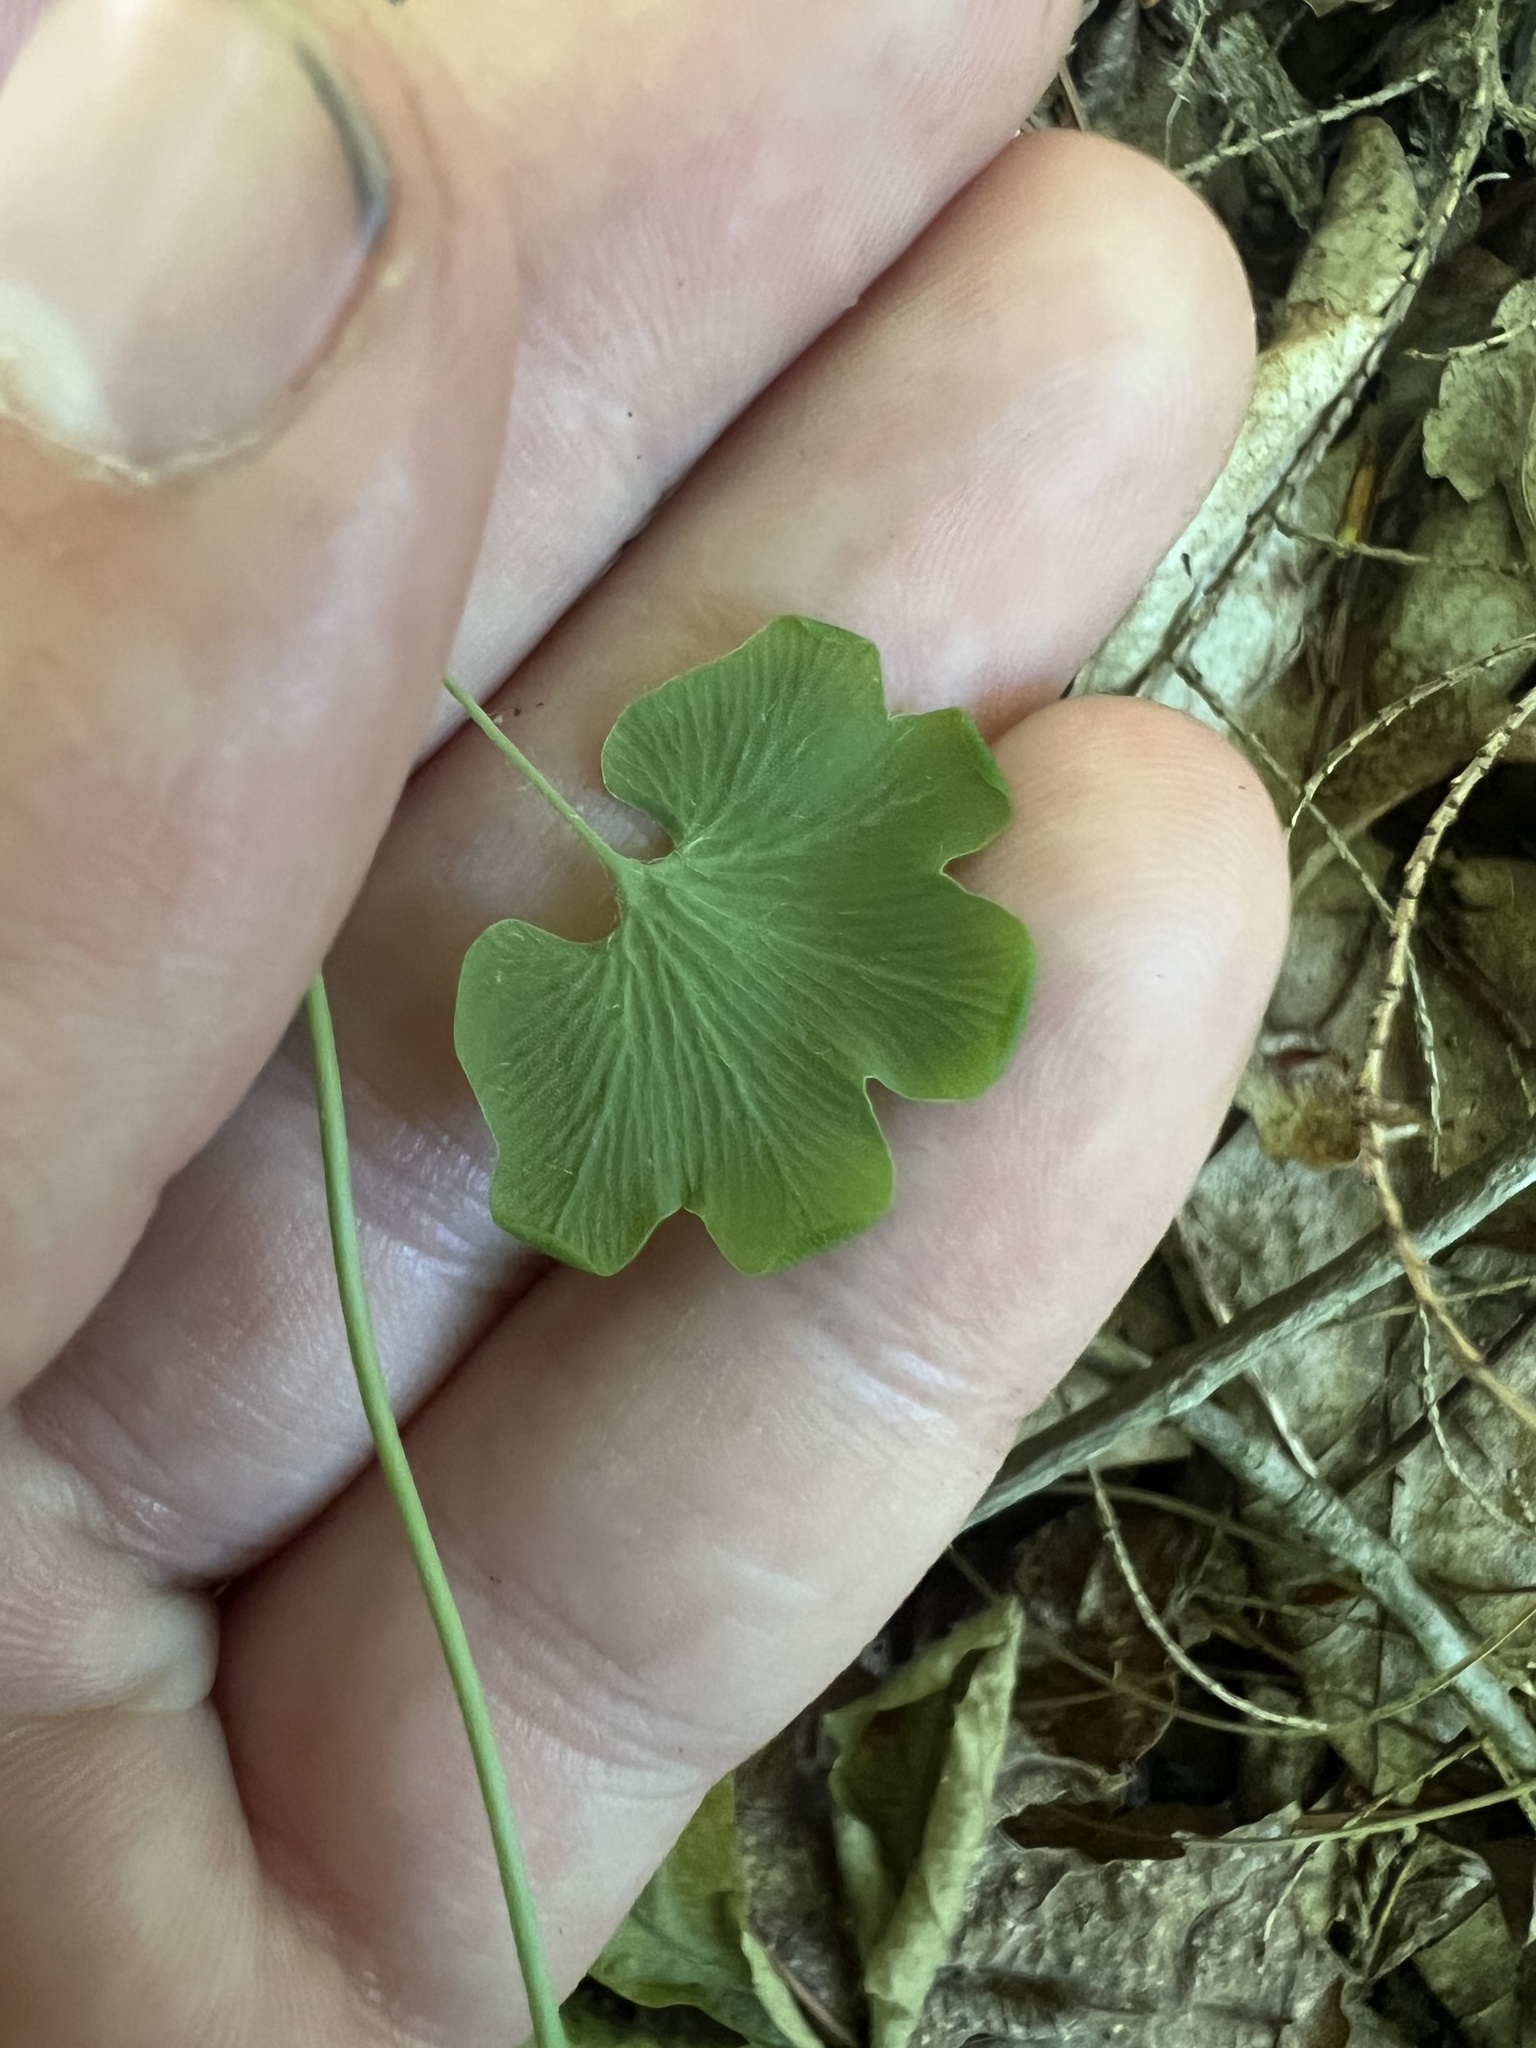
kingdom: Plantae
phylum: Tracheophyta
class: Polypodiopsida
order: Schizaeales
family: Lygodiaceae
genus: Lygodium
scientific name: Lygodium palmatum
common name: American climbing fern
